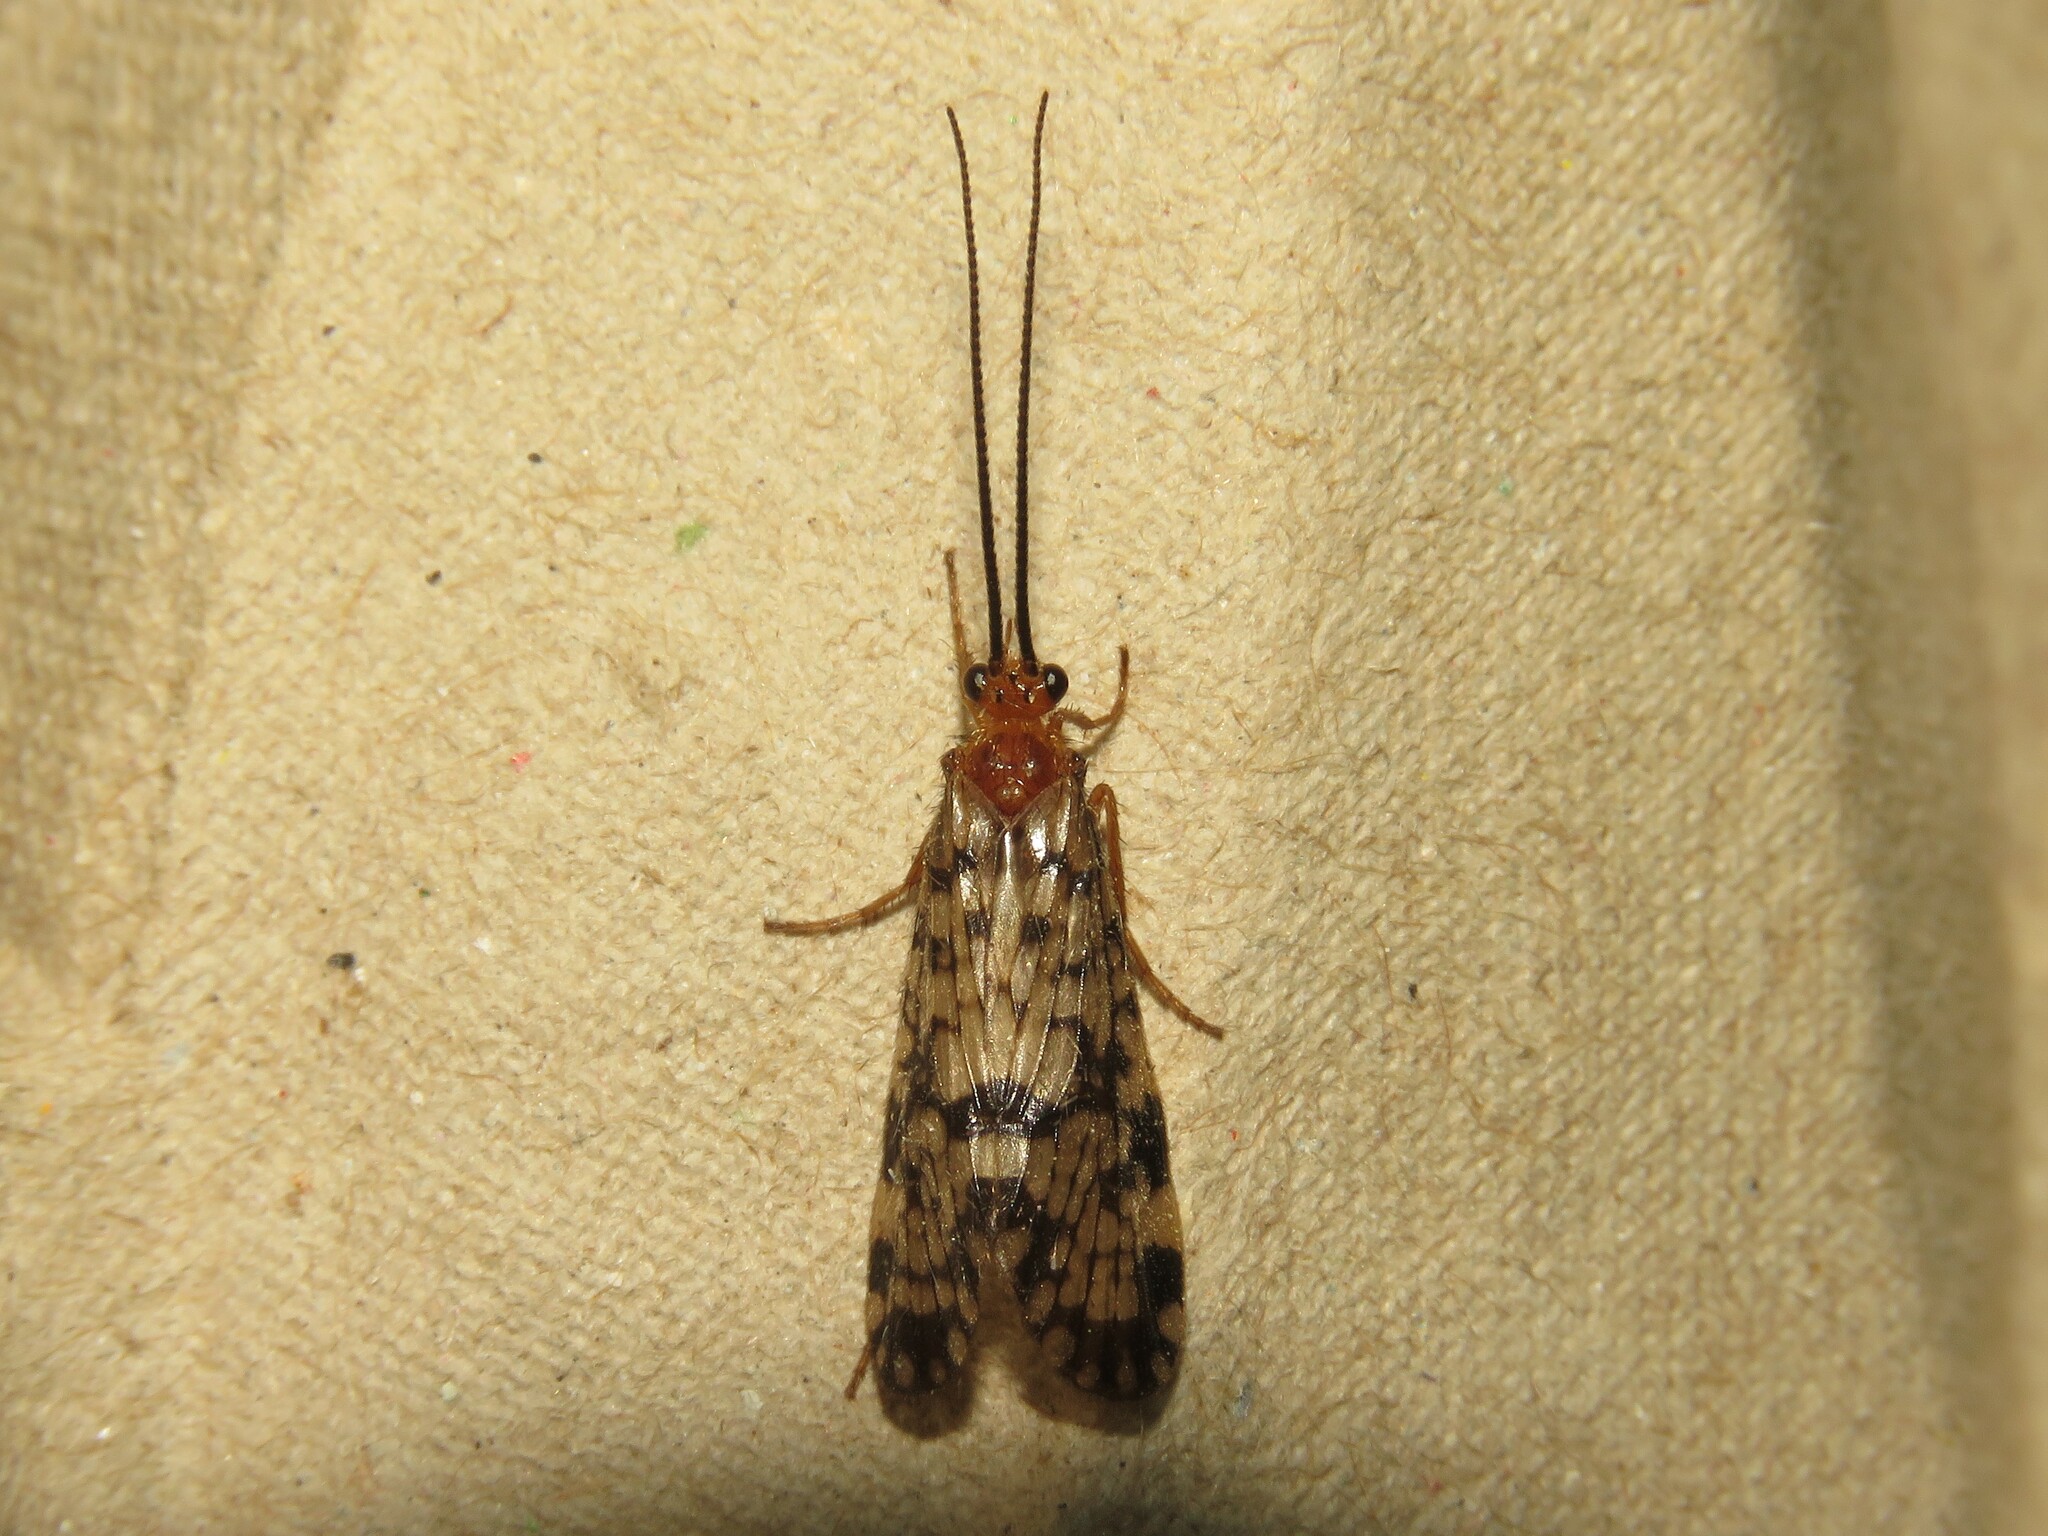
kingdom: Animalia
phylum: Arthropoda
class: Insecta
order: Trichoptera
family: Phryganeidae
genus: Banksiola
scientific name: Banksiola dossuaria
